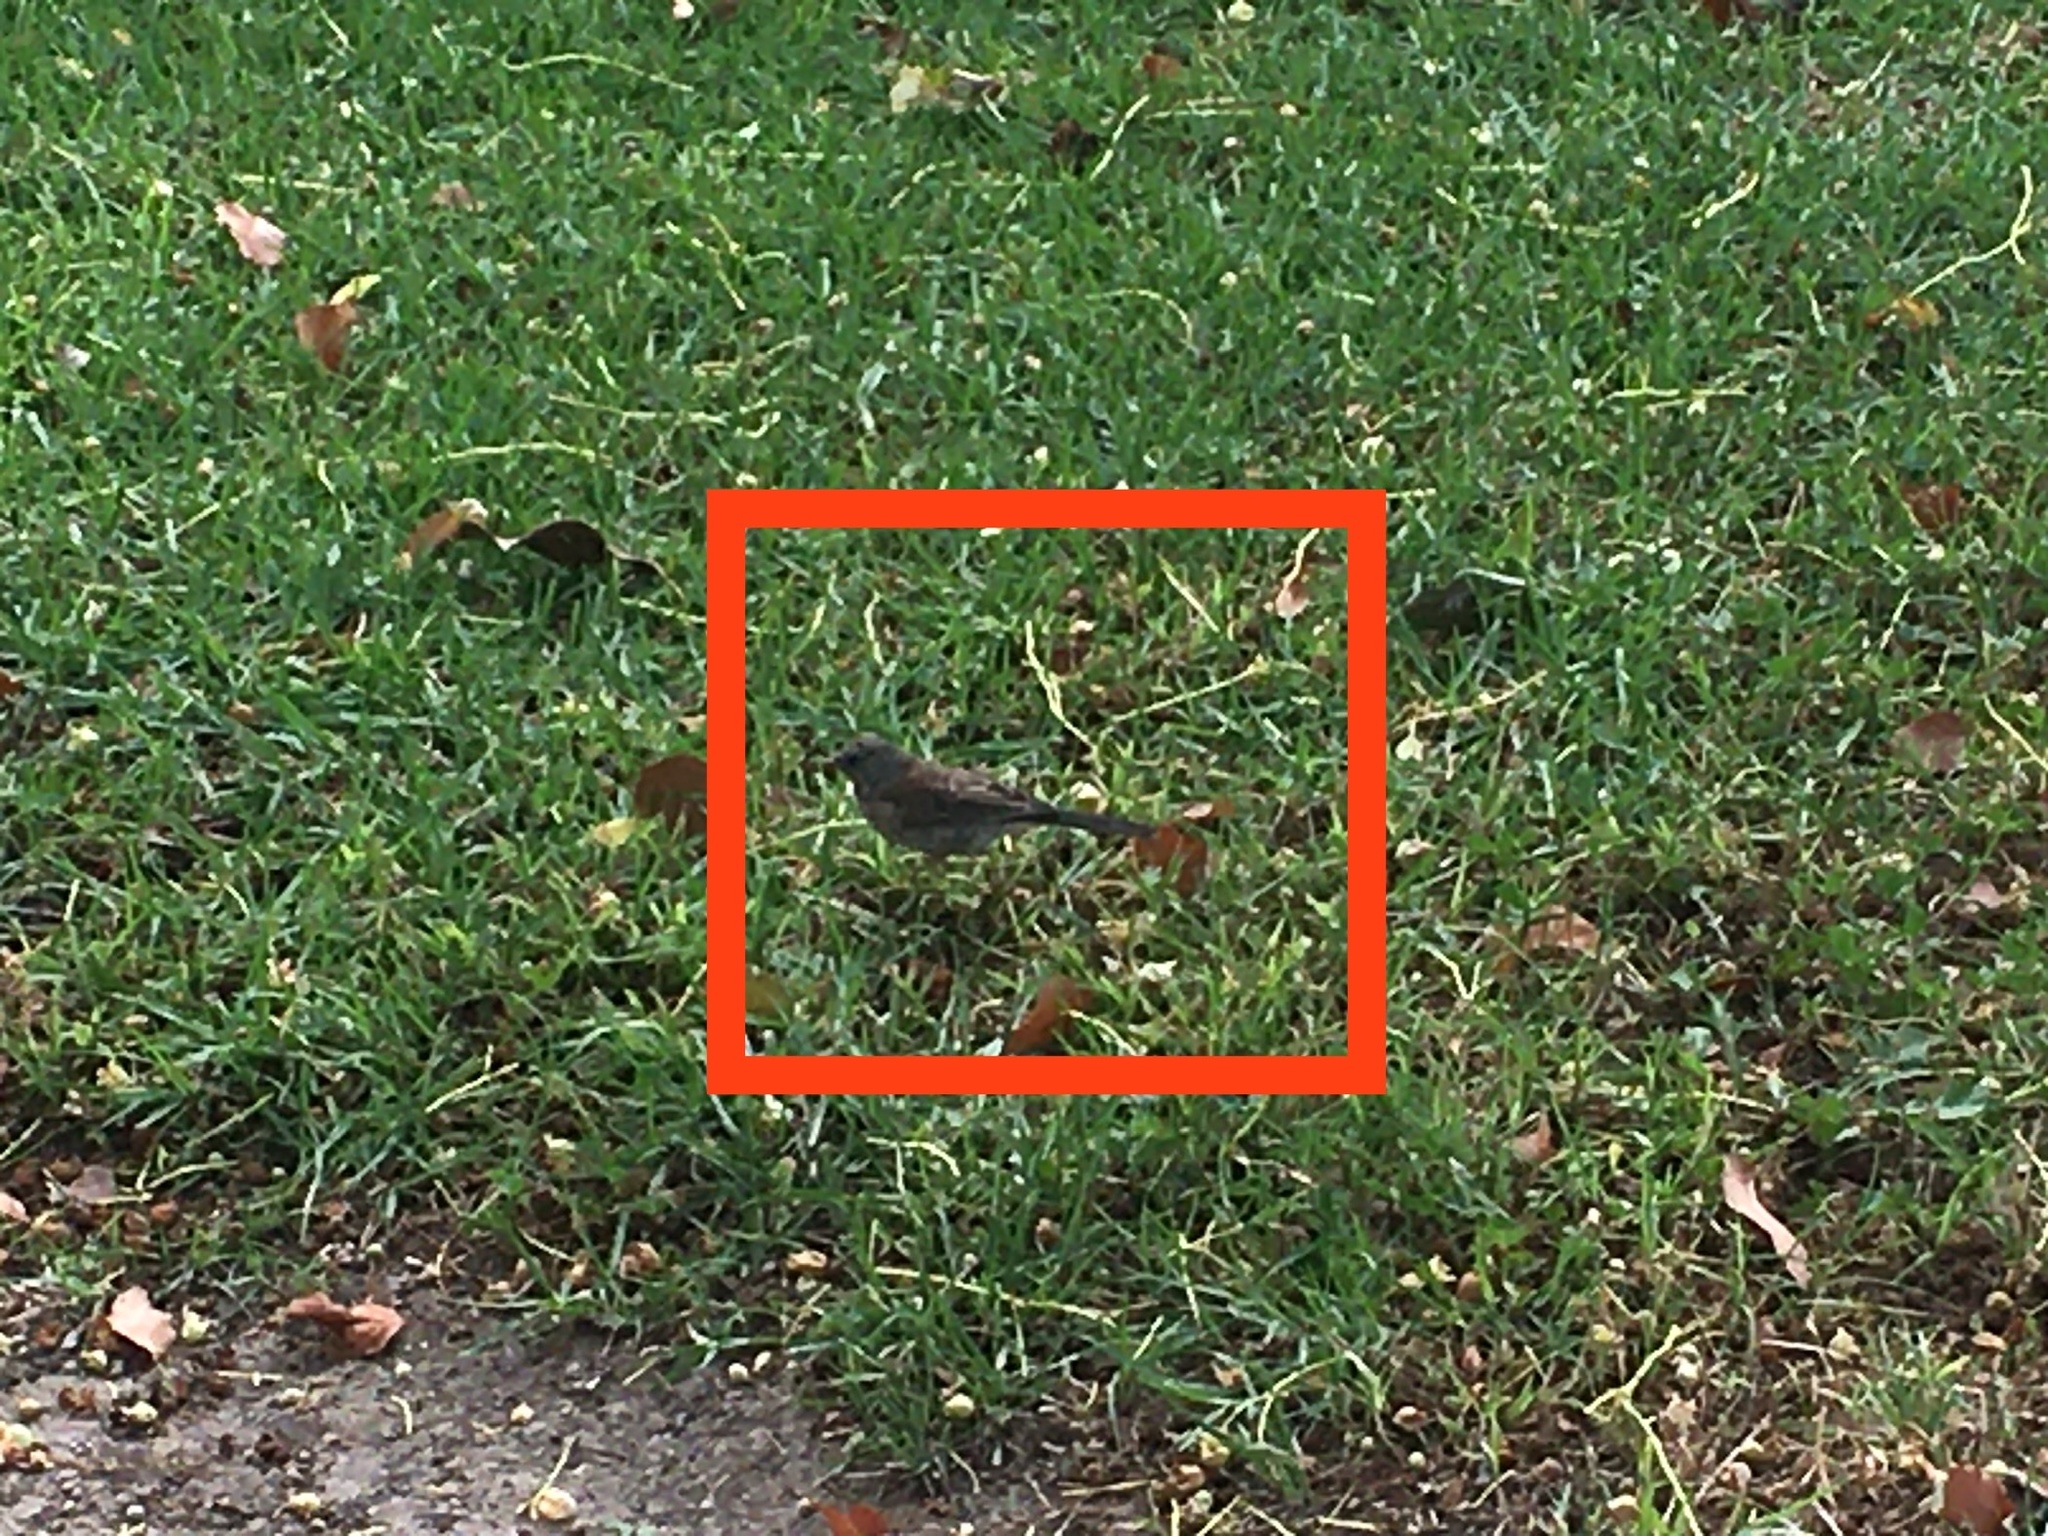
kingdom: Animalia
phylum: Chordata
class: Aves
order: Passeriformes
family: Passerellidae
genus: Junco
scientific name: Junco hyemalis
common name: Dark-eyed junco
